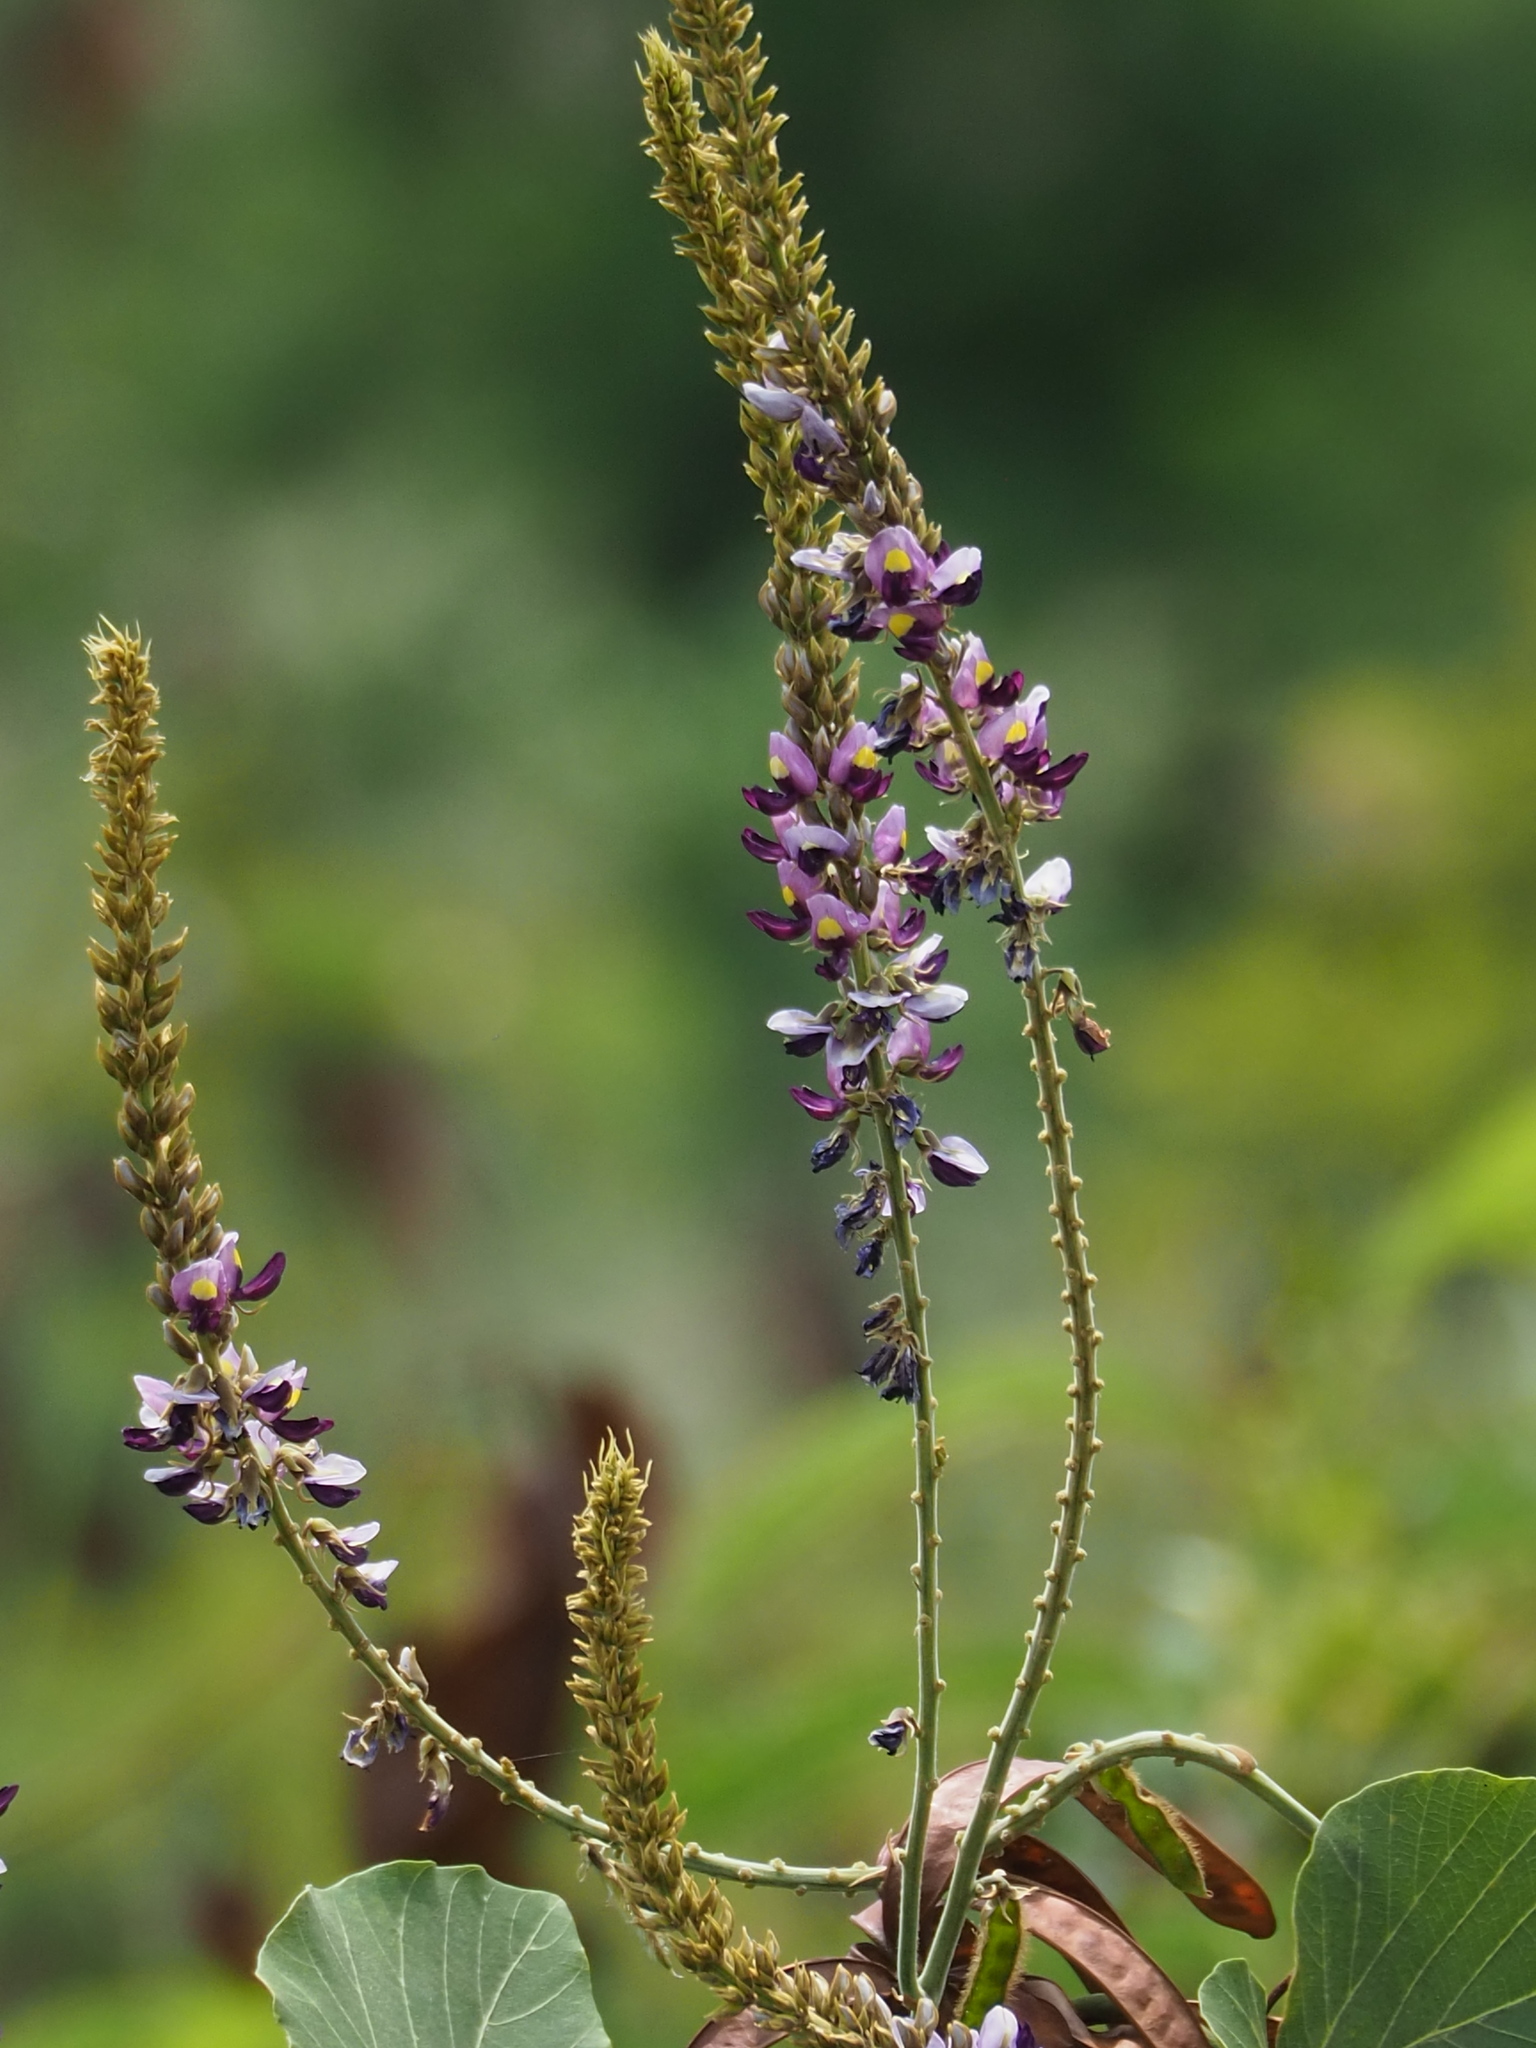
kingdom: Plantae
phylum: Tracheophyta
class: Magnoliopsida
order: Fabales
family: Fabaceae
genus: Pueraria
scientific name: Pueraria montana
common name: Kudzu
